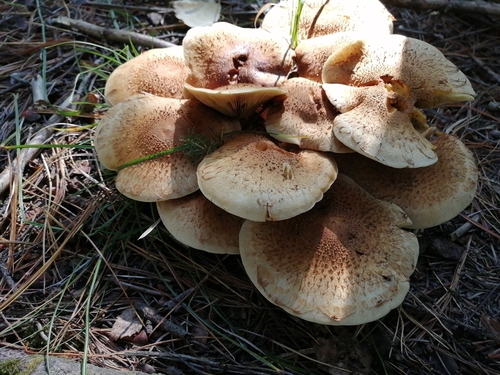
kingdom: Fungi
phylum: Basidiomycota
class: Agaricomycetes
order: Agaricales
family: Strophariaceae
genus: Pholiota
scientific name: Pholiota squarrosa
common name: Shaggy pholiota
